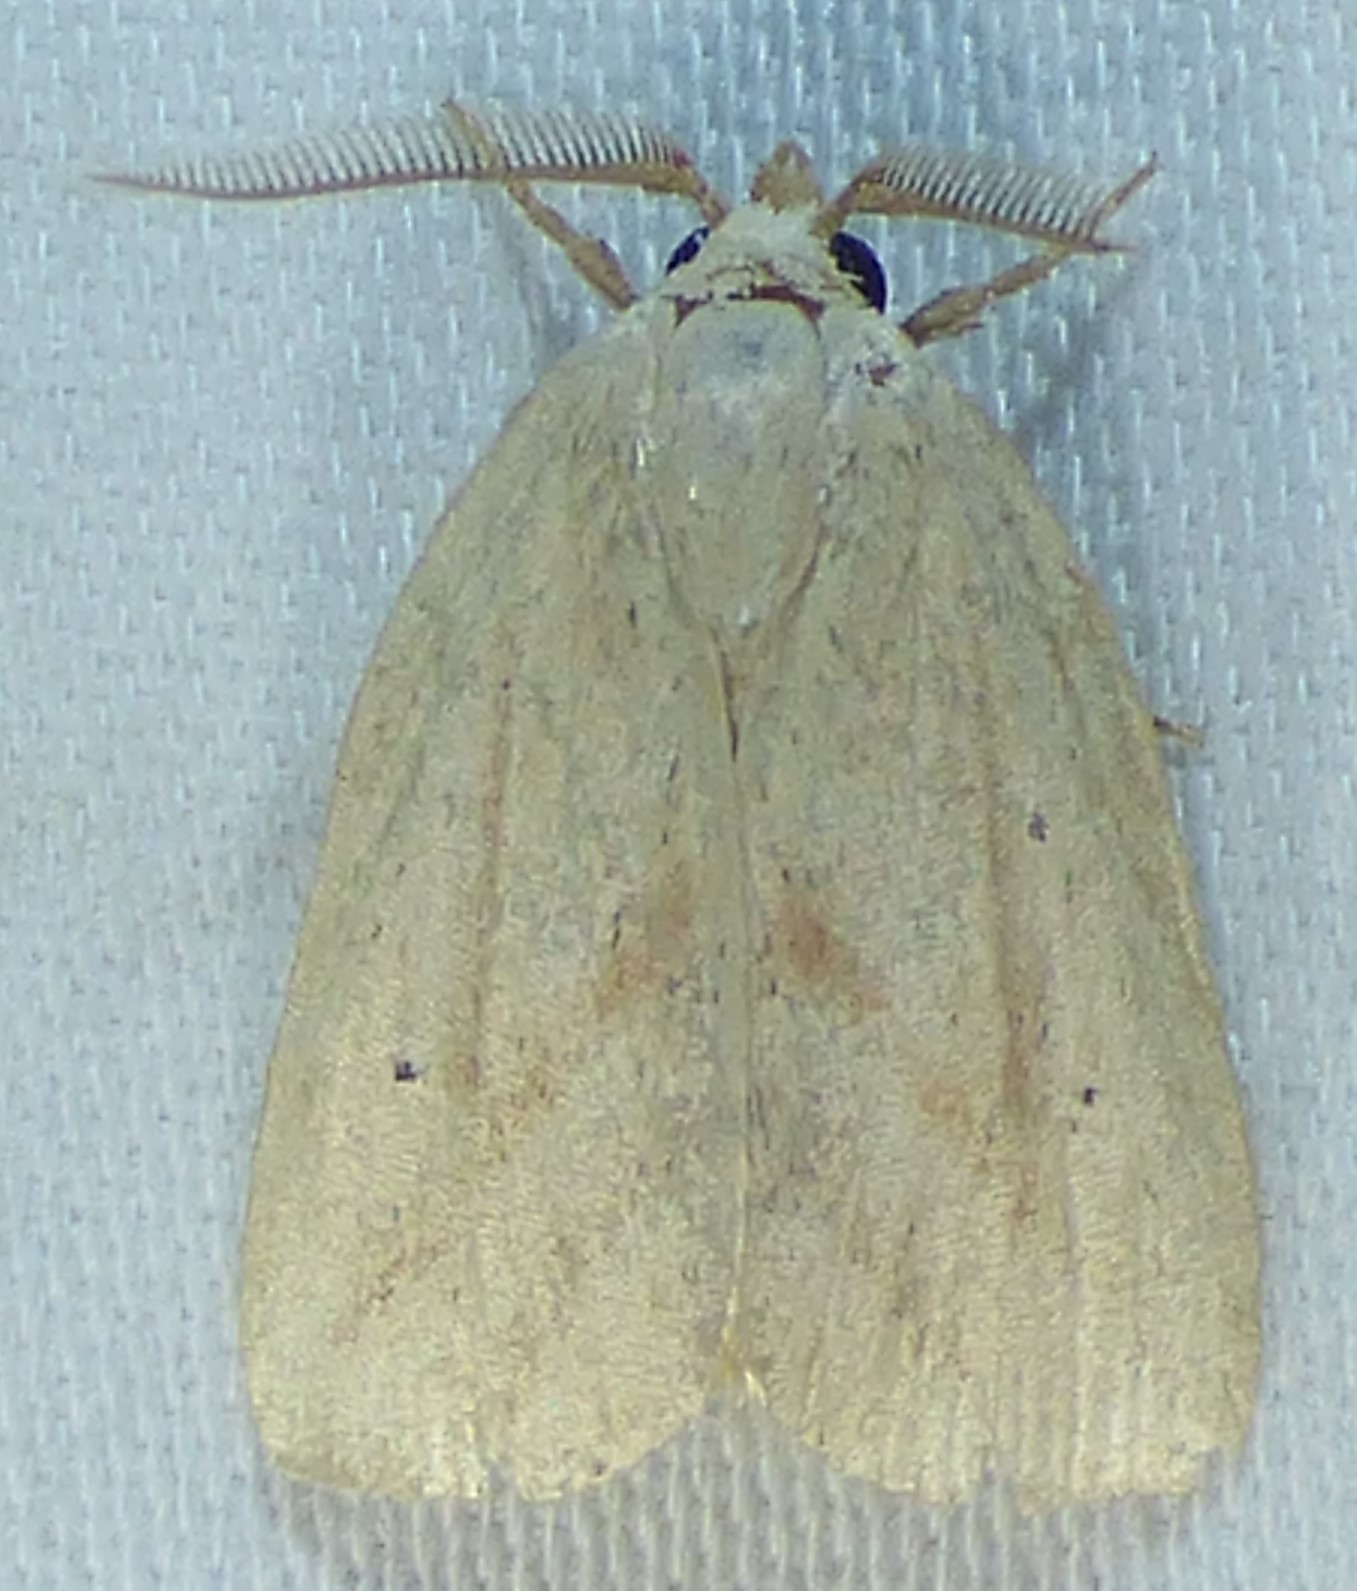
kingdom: Animalia
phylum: Arthropoda
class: Insecta
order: Lepidoptera
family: Noctuidae
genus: Amolita
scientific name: Amolita obliqua
